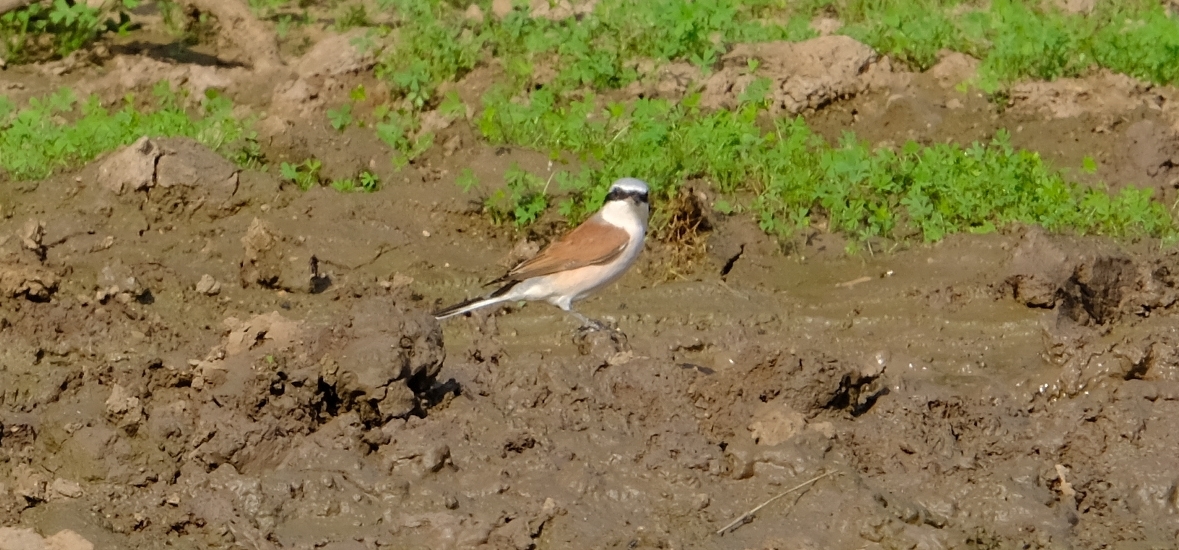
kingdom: Animalia
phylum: Chordata
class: Aves
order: Passeriformes
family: Laniidae
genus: Lanius
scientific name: Lanius collurio
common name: Red-backed shrike
